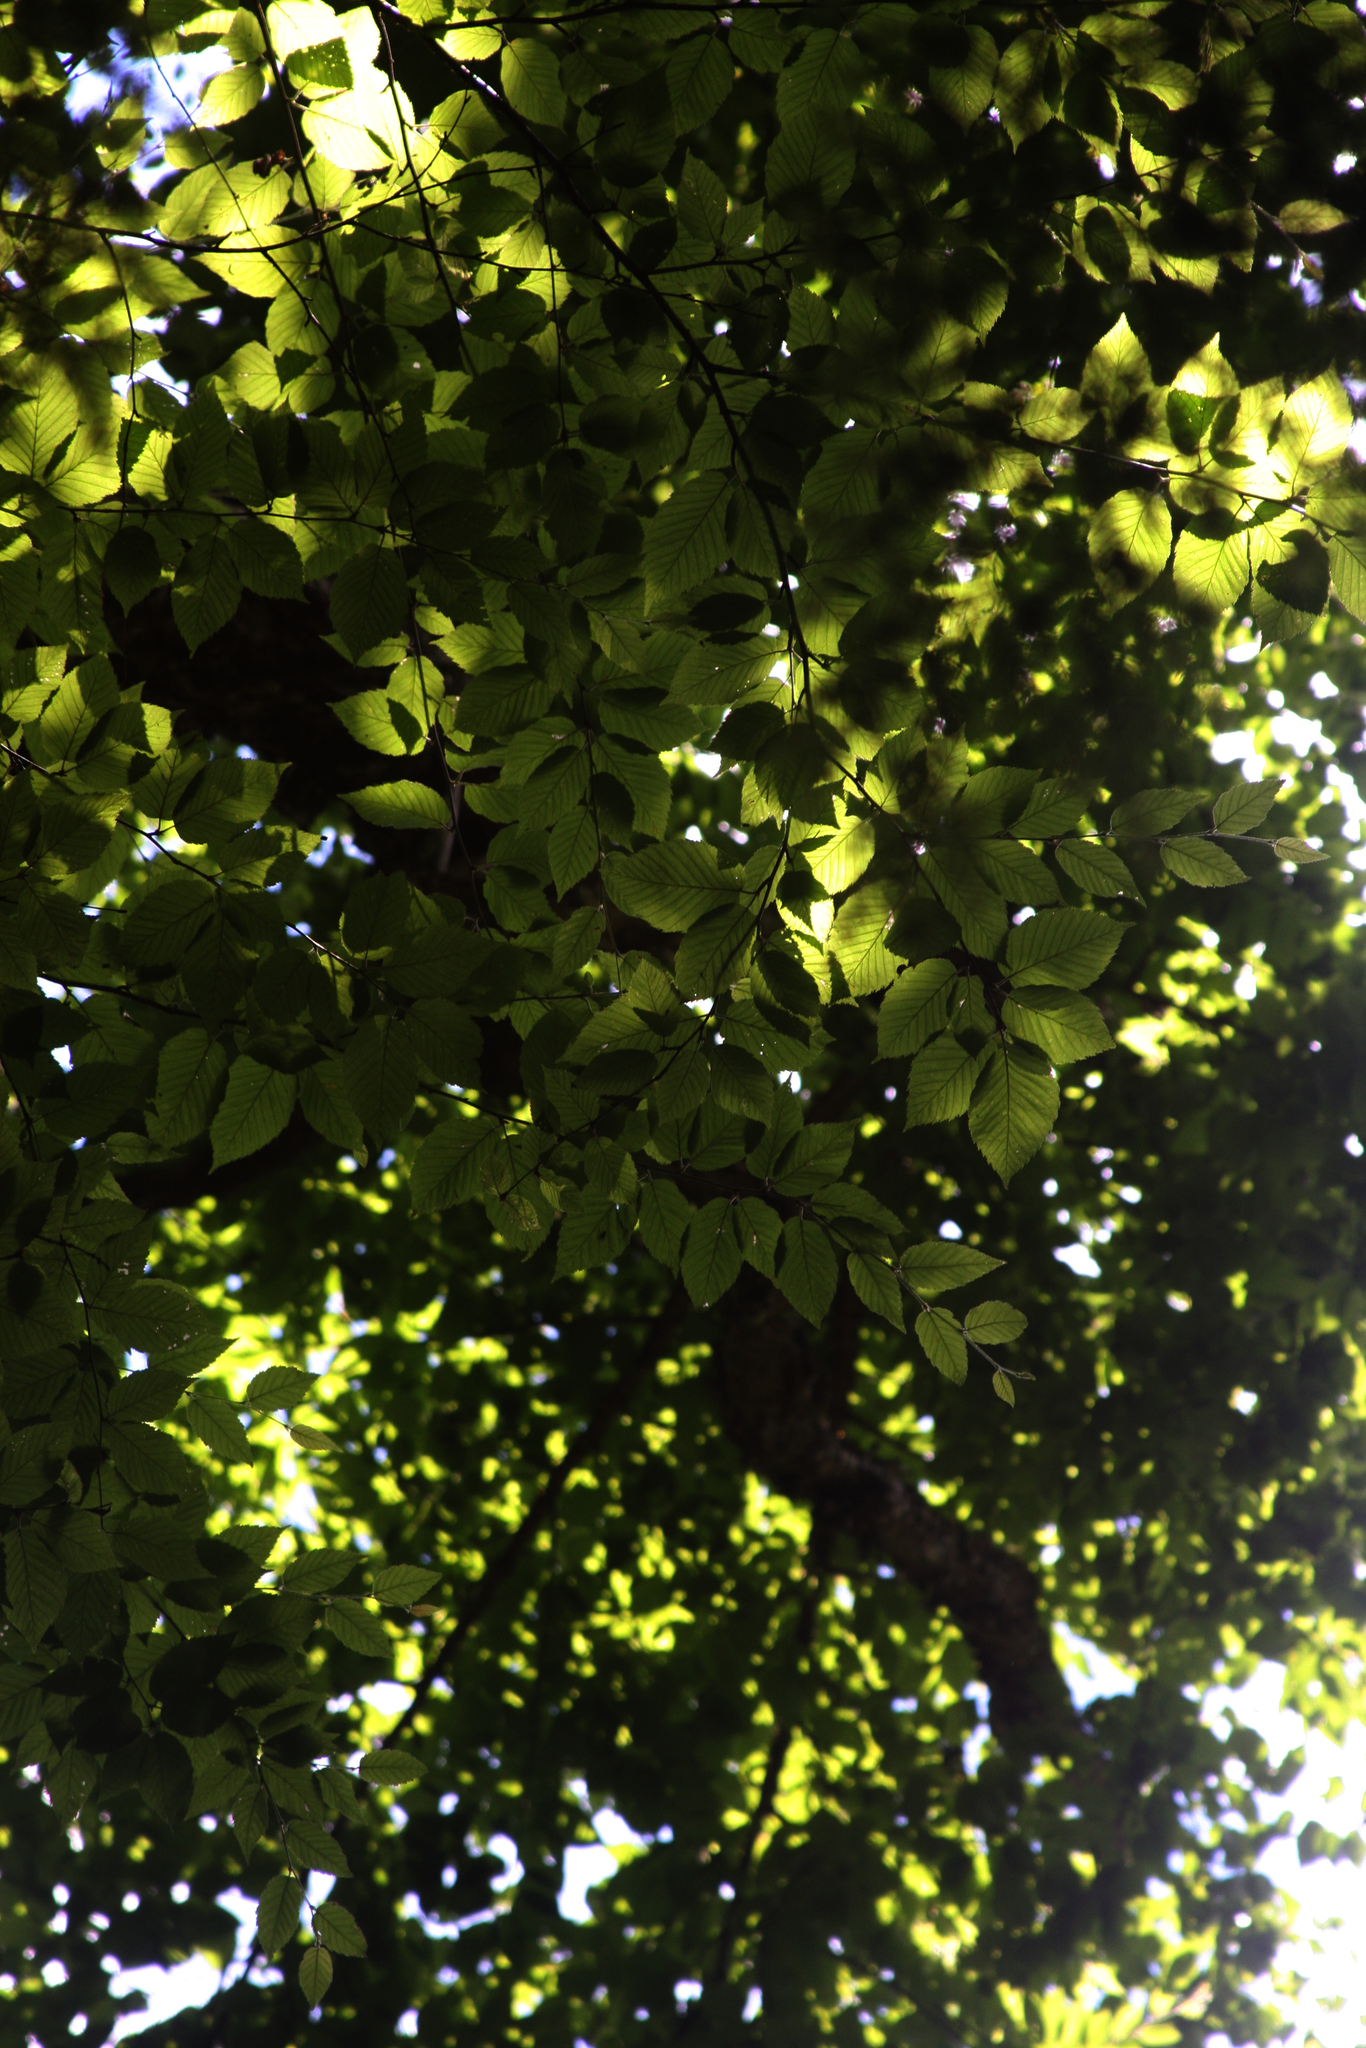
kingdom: Plantae
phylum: Tracheophyta
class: Magnoliopsida
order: Fagales
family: Betulaceae
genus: Betula
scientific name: Betula alleghaniensis
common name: Yellow birch
